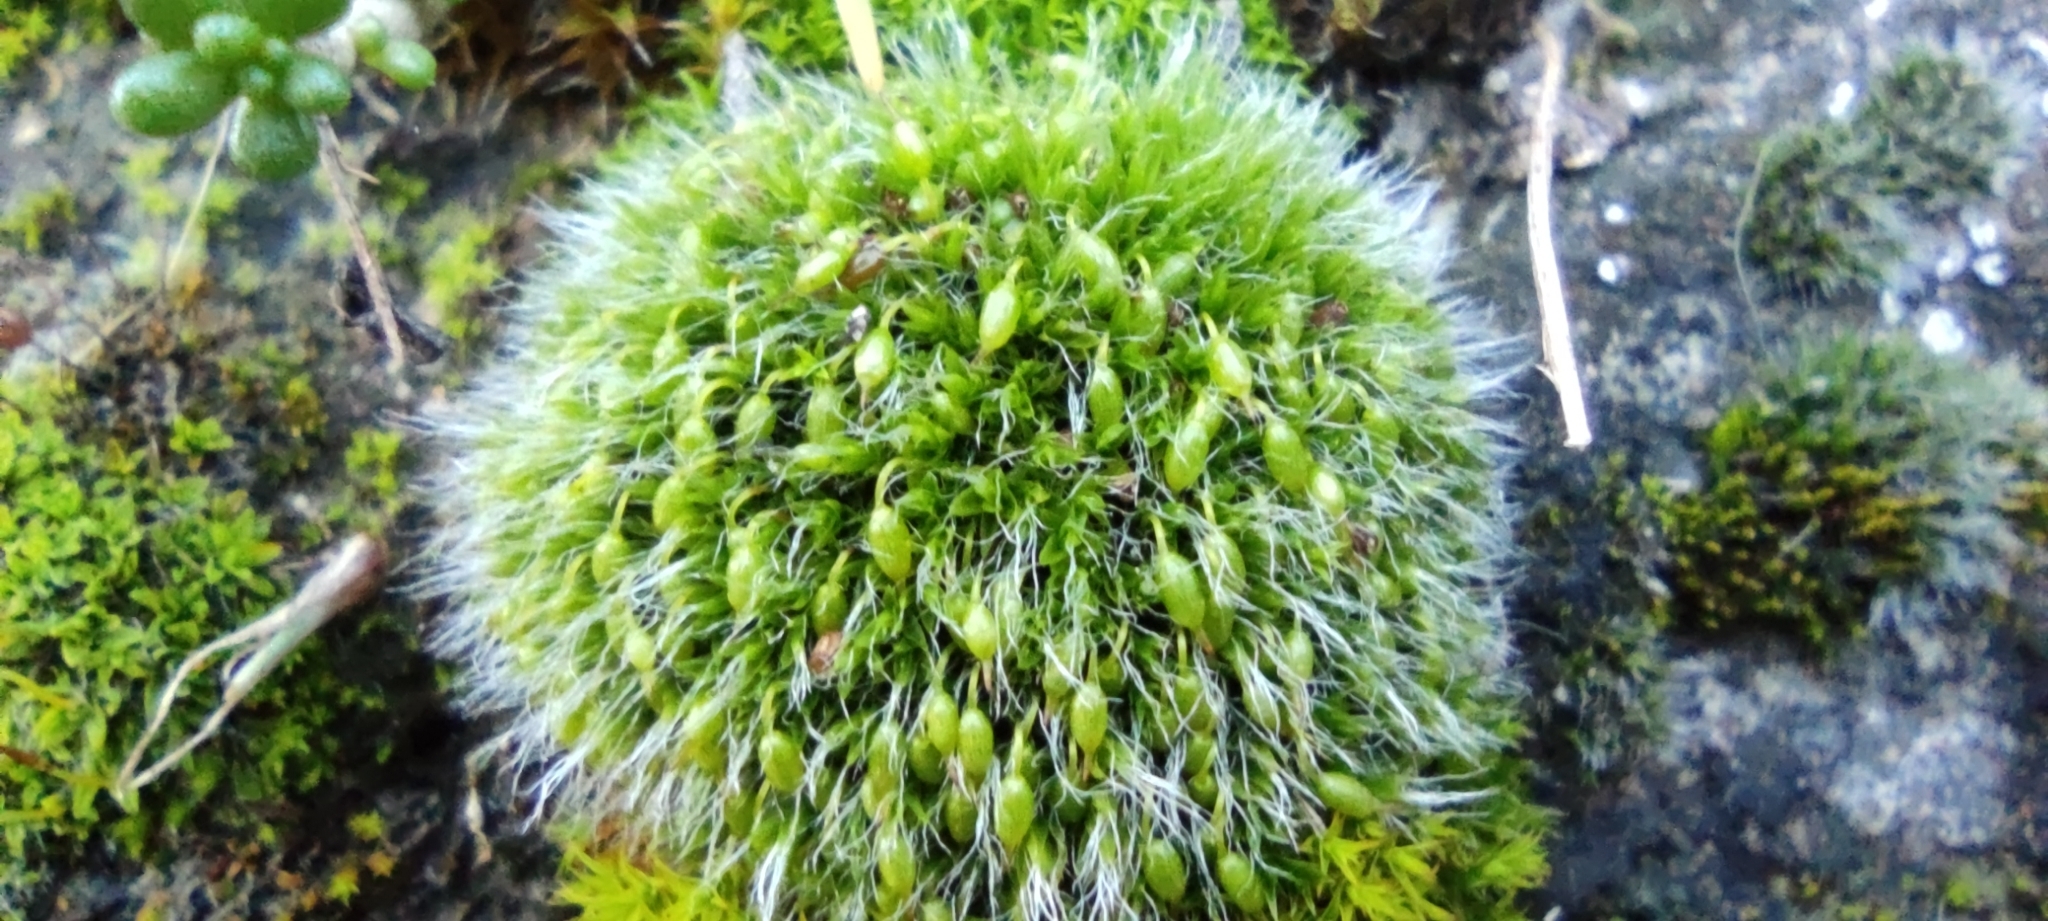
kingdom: Plantae
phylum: Bryophyta
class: Bryopsida
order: Grimmiales
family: Grimmiaceae
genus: Grimmia
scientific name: Grimmia pulvinata
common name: Grey-cushioned grimmia
